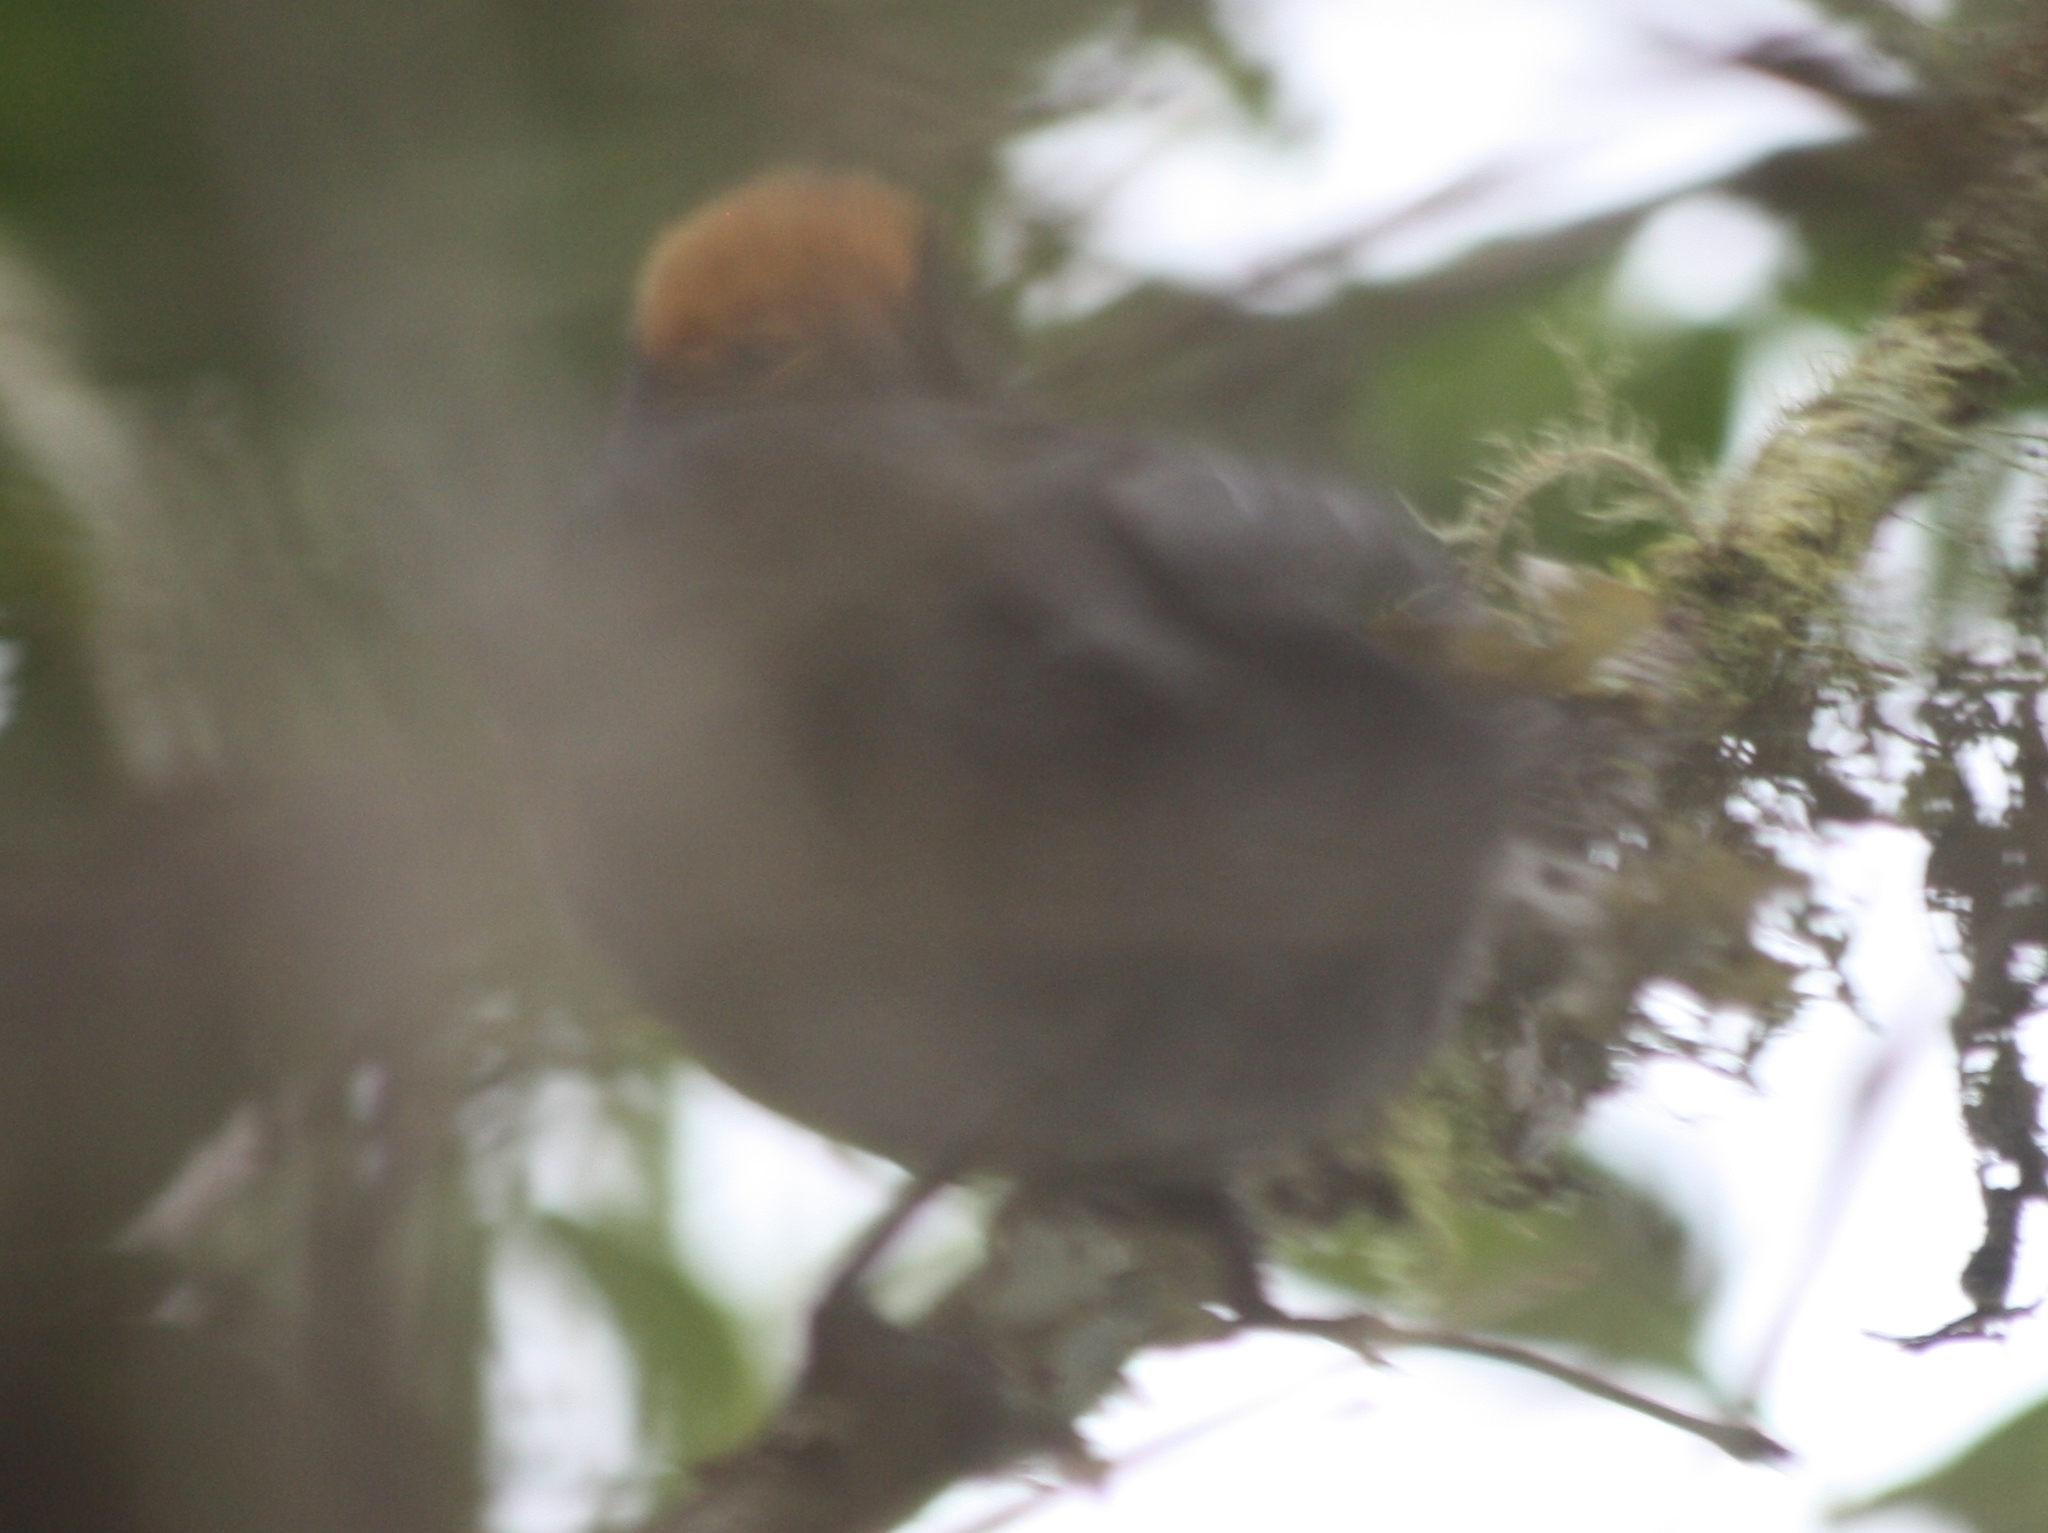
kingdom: Animalia
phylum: Chordata
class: Aves
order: Passeriformes
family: Passerellidae
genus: Atlapetes
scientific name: Atlapetes canigenis
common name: Cuzco brushfinch
